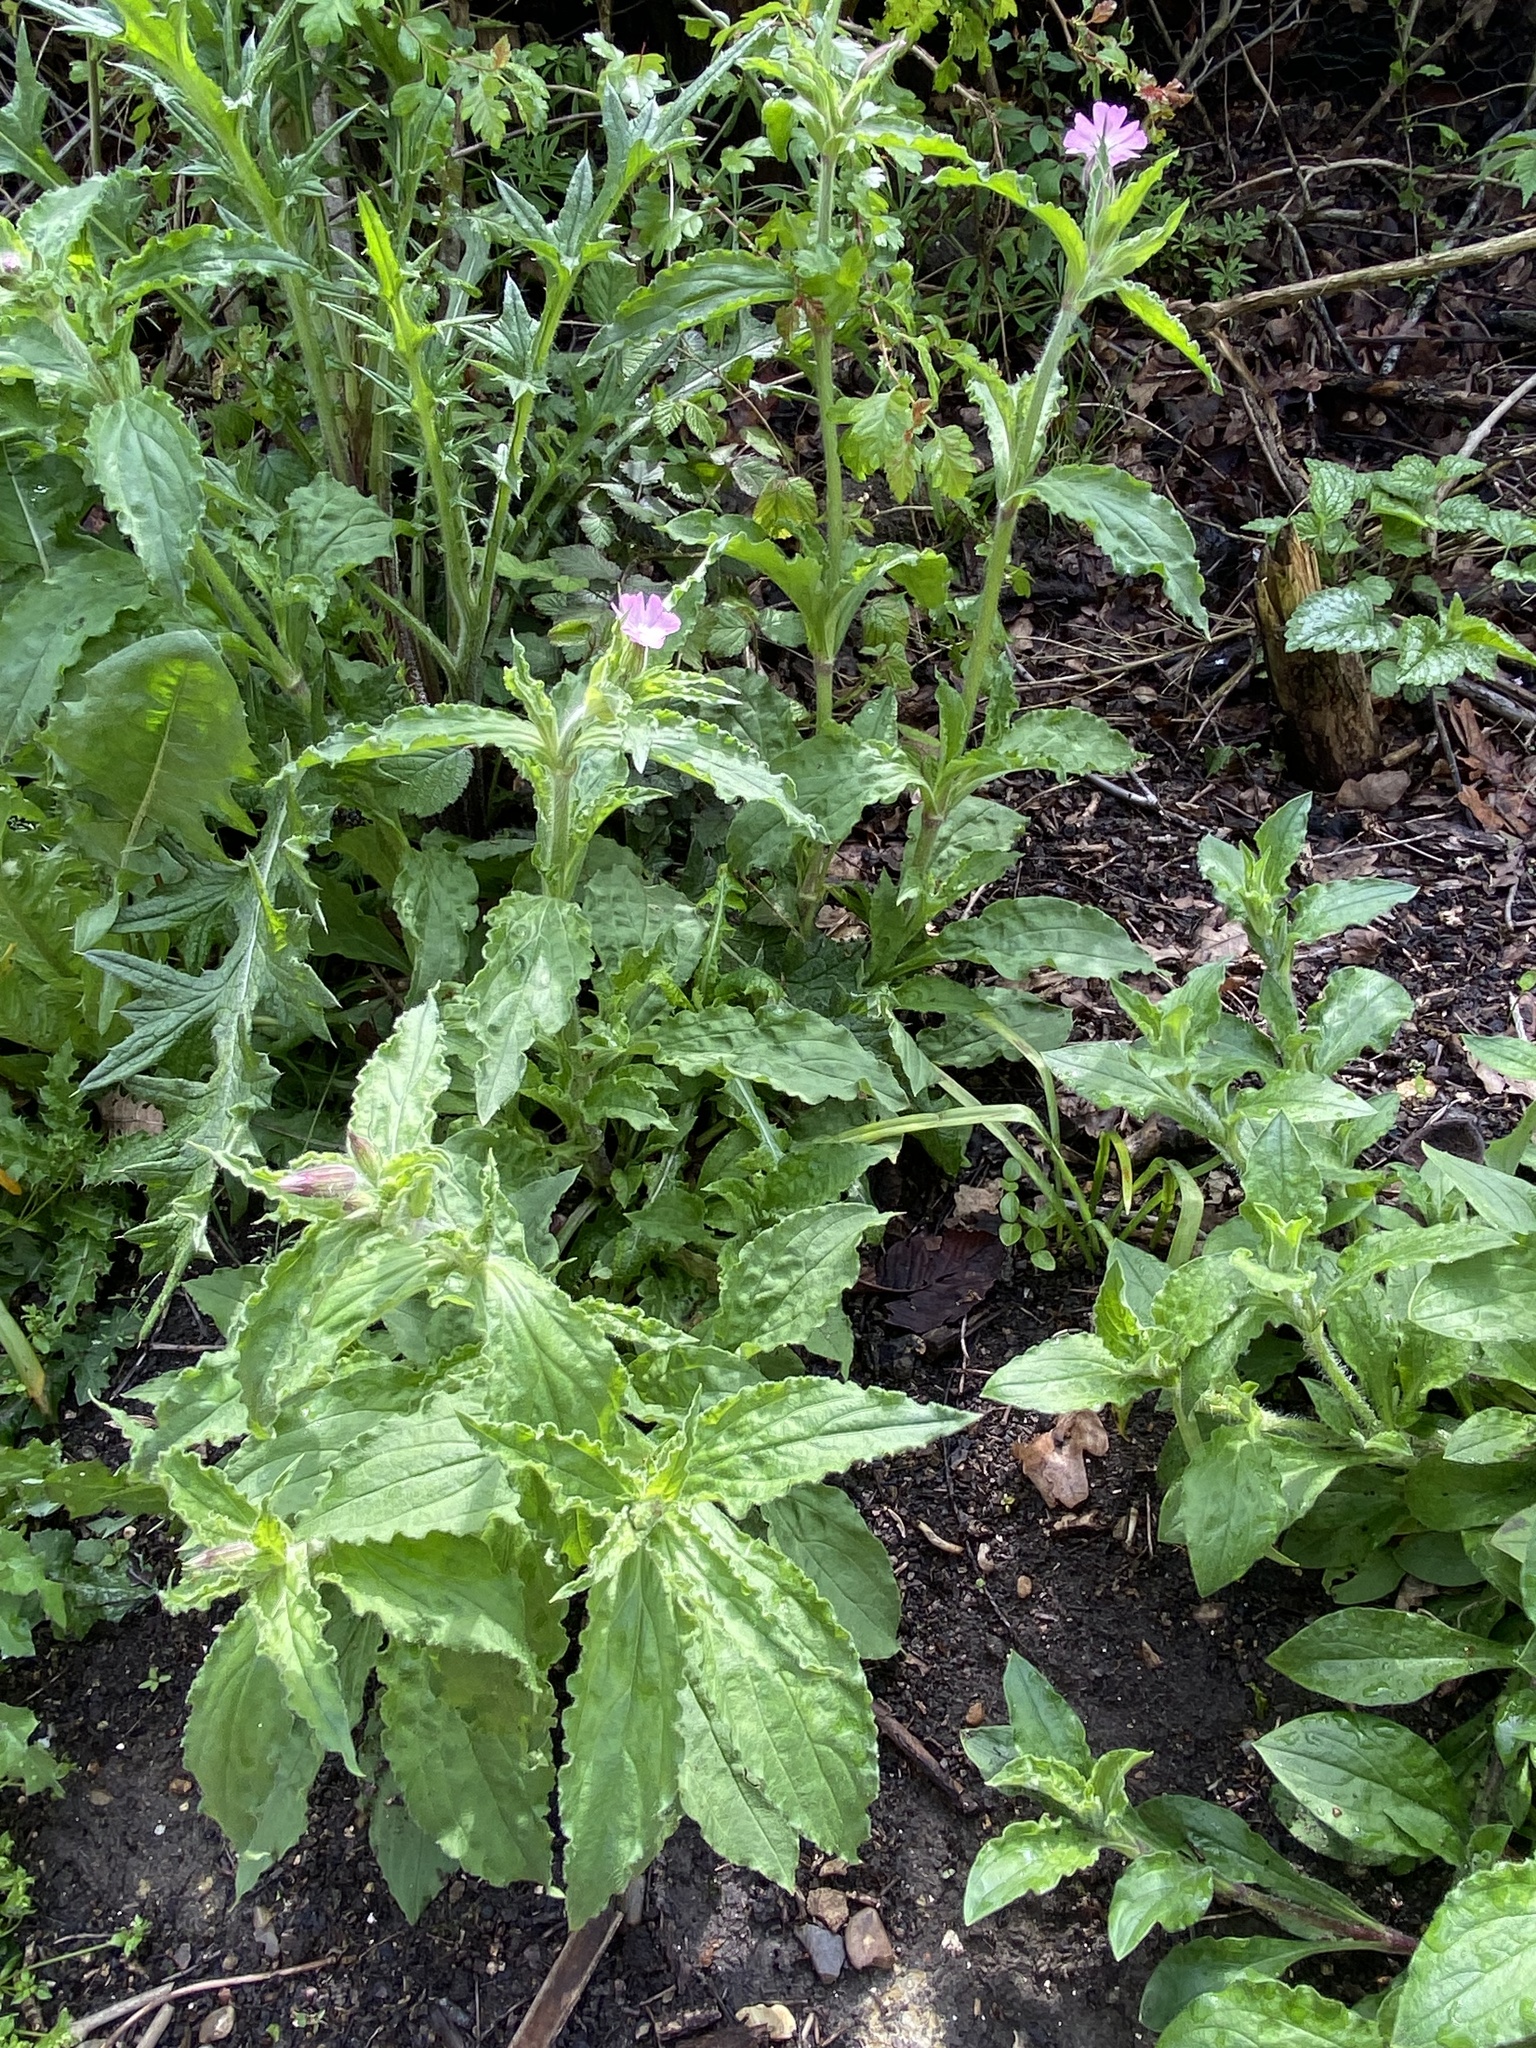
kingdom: Plantae
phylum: Tracheophyta
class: Magnoliopsida
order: Caryophyllales
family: Caryophyllaceae
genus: Silene
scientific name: Silene dioica
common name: Red campion
